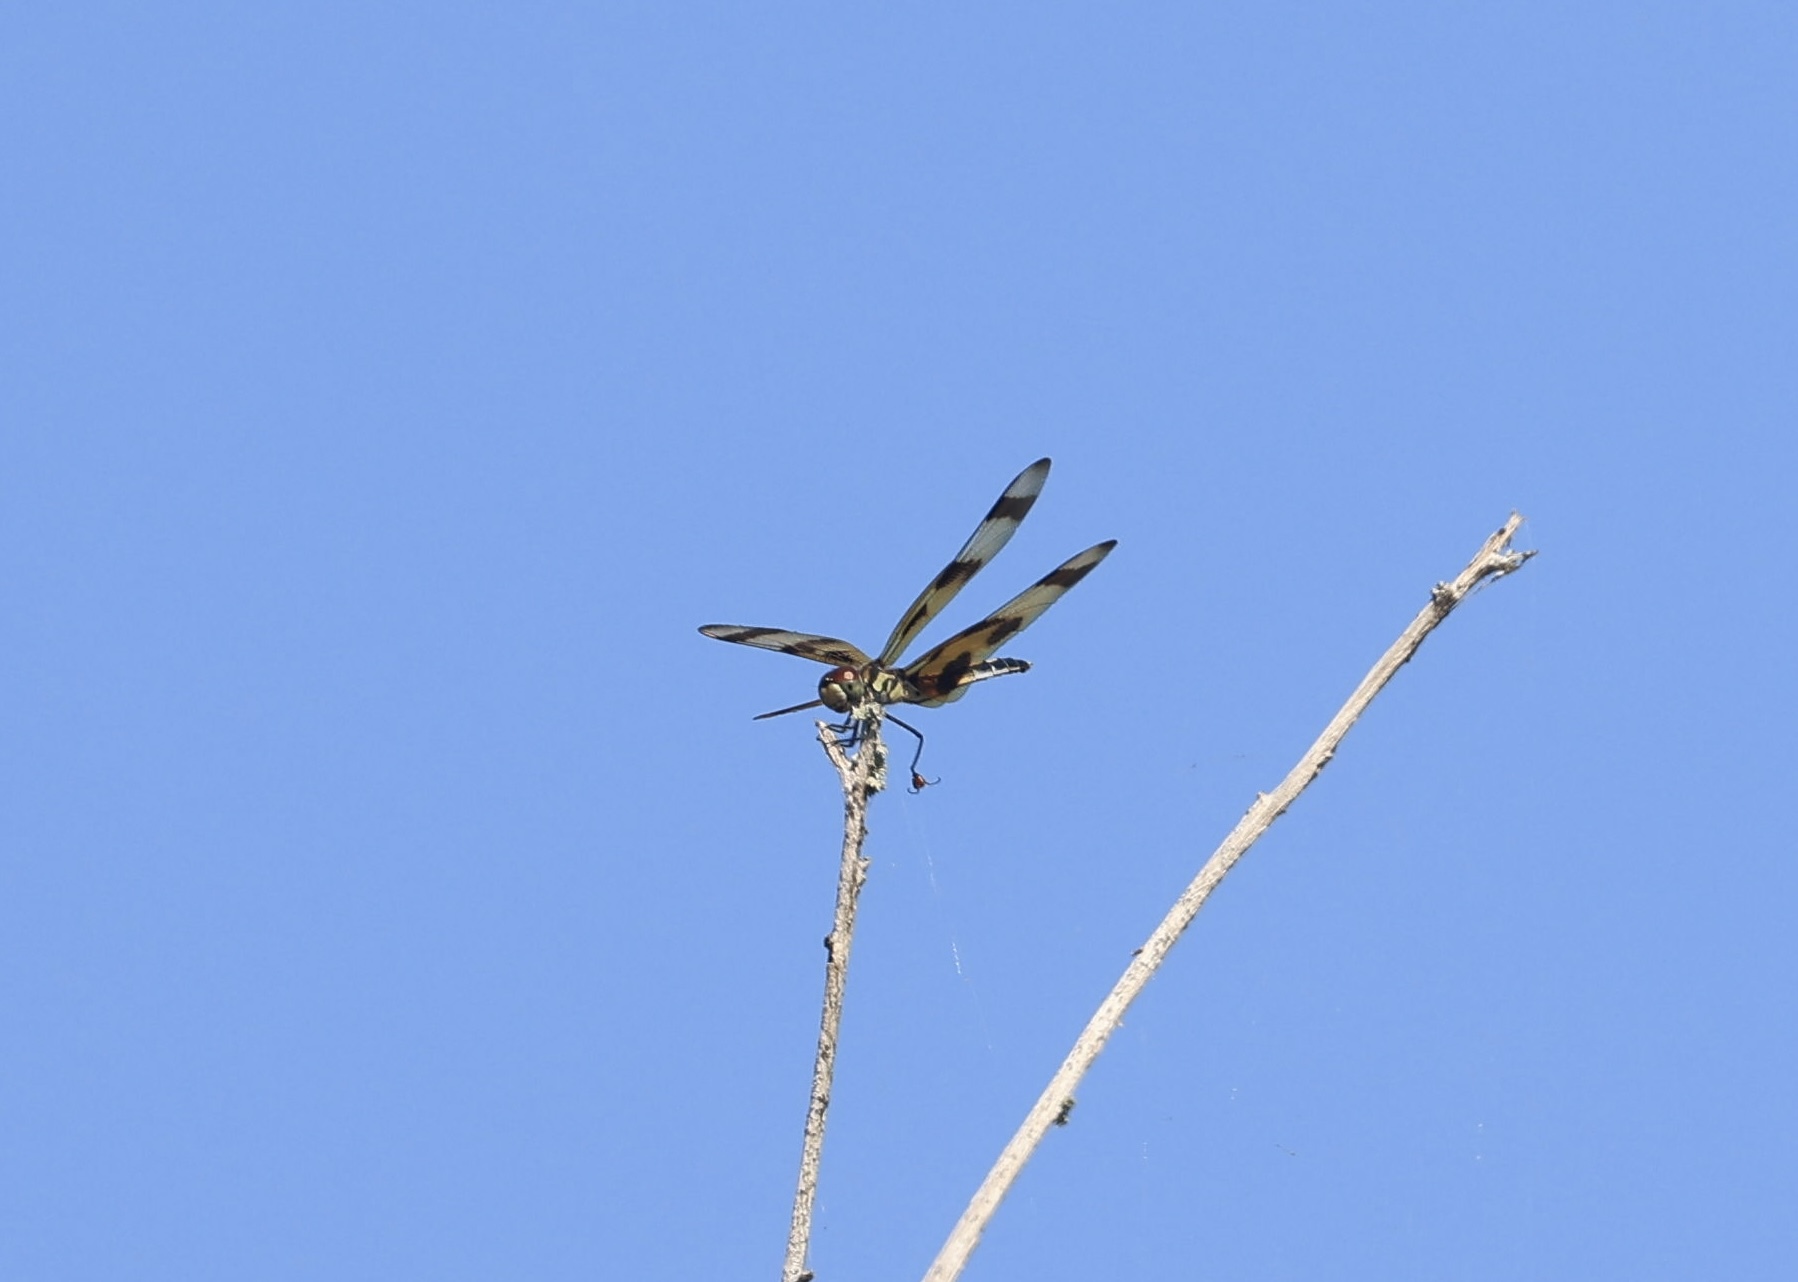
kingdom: Animalia
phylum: Arthropoda
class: Insecta
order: Odonata
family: Libellulidae
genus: Celithemis
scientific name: Celithemis eponina
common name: Halloween pennant
